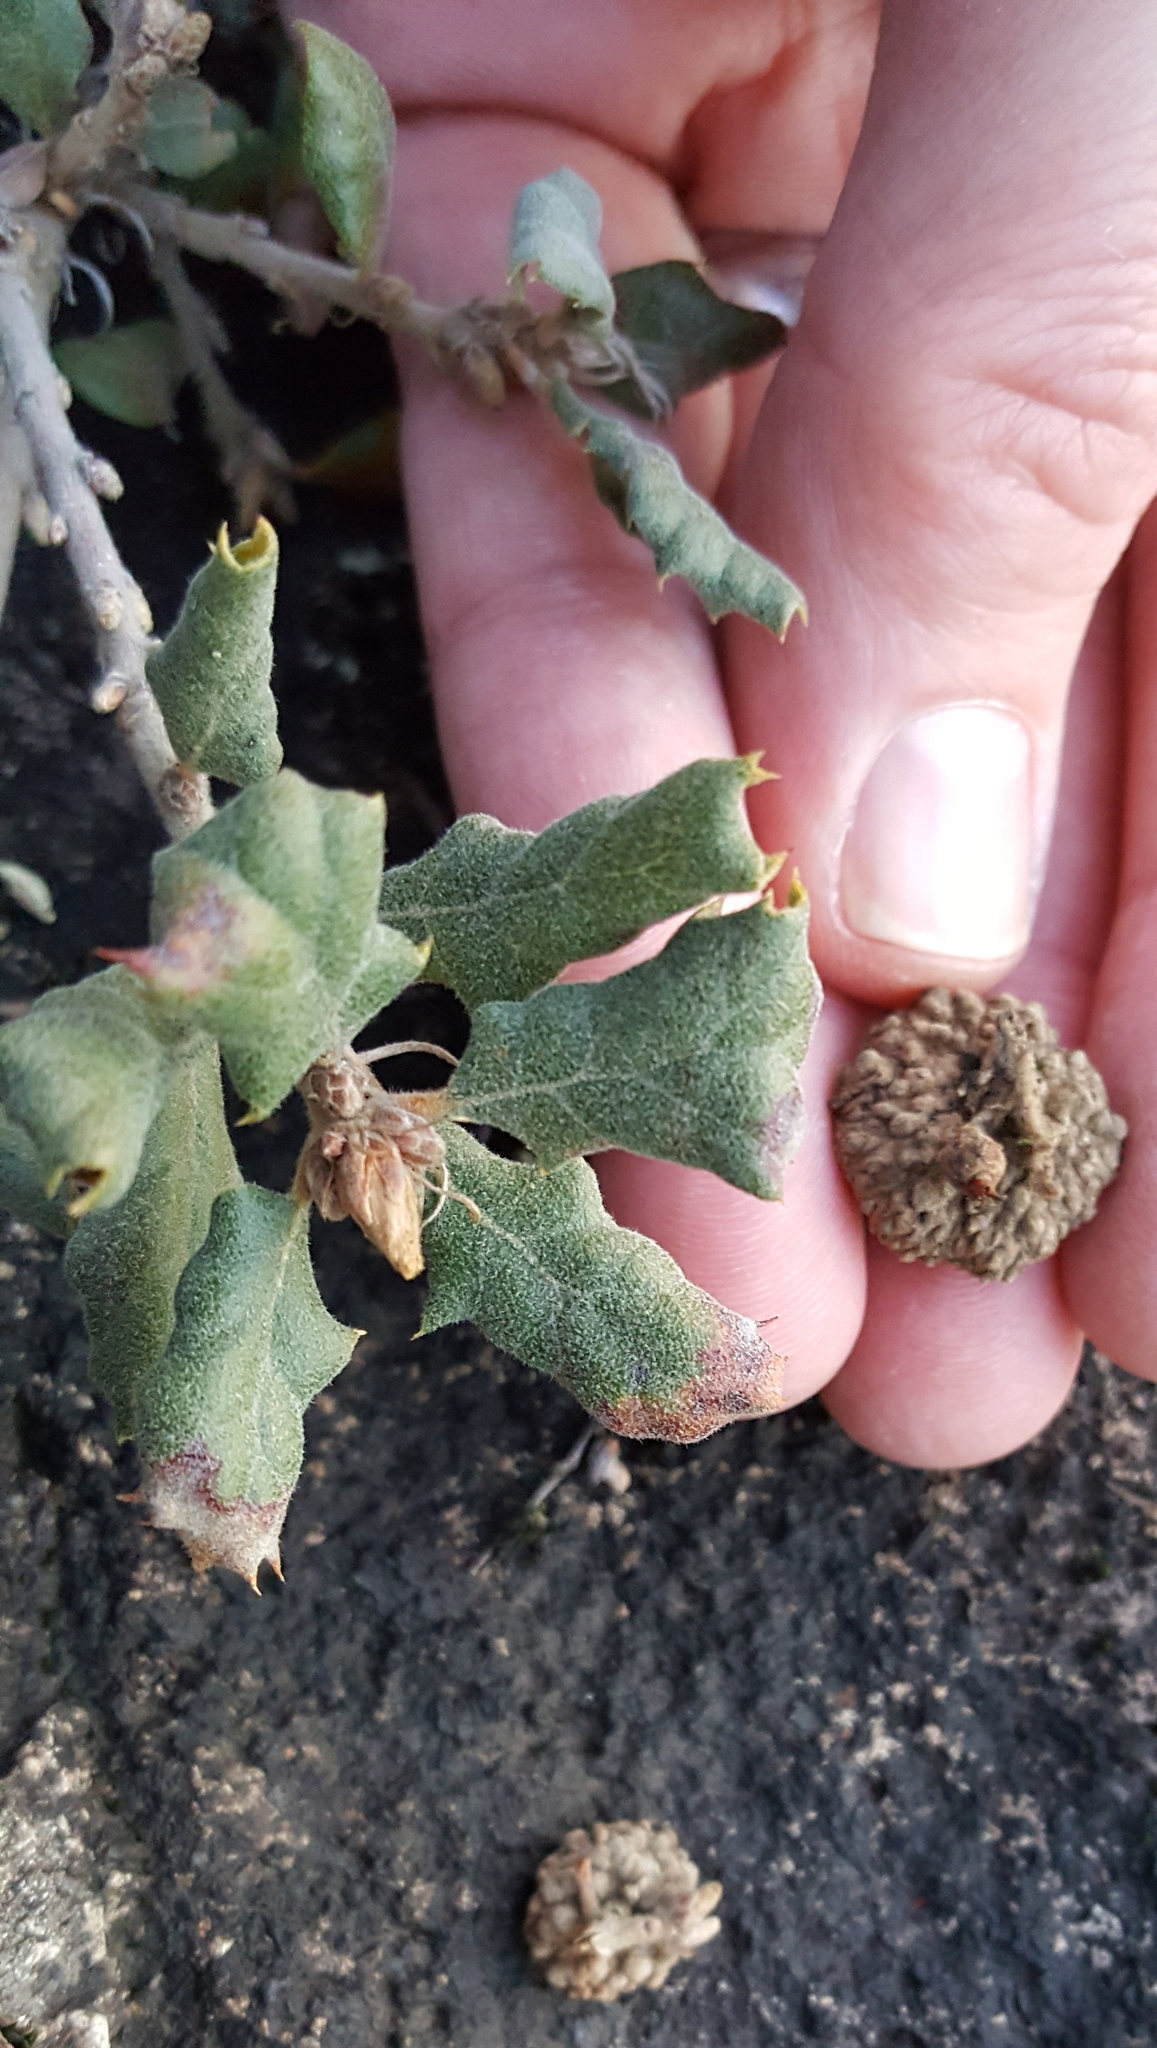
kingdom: Plantae
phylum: Tracheophyta
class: Magnoliopsida
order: Fagales
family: Fagaceae
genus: Quercus
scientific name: Quercus durata
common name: Leather oak
